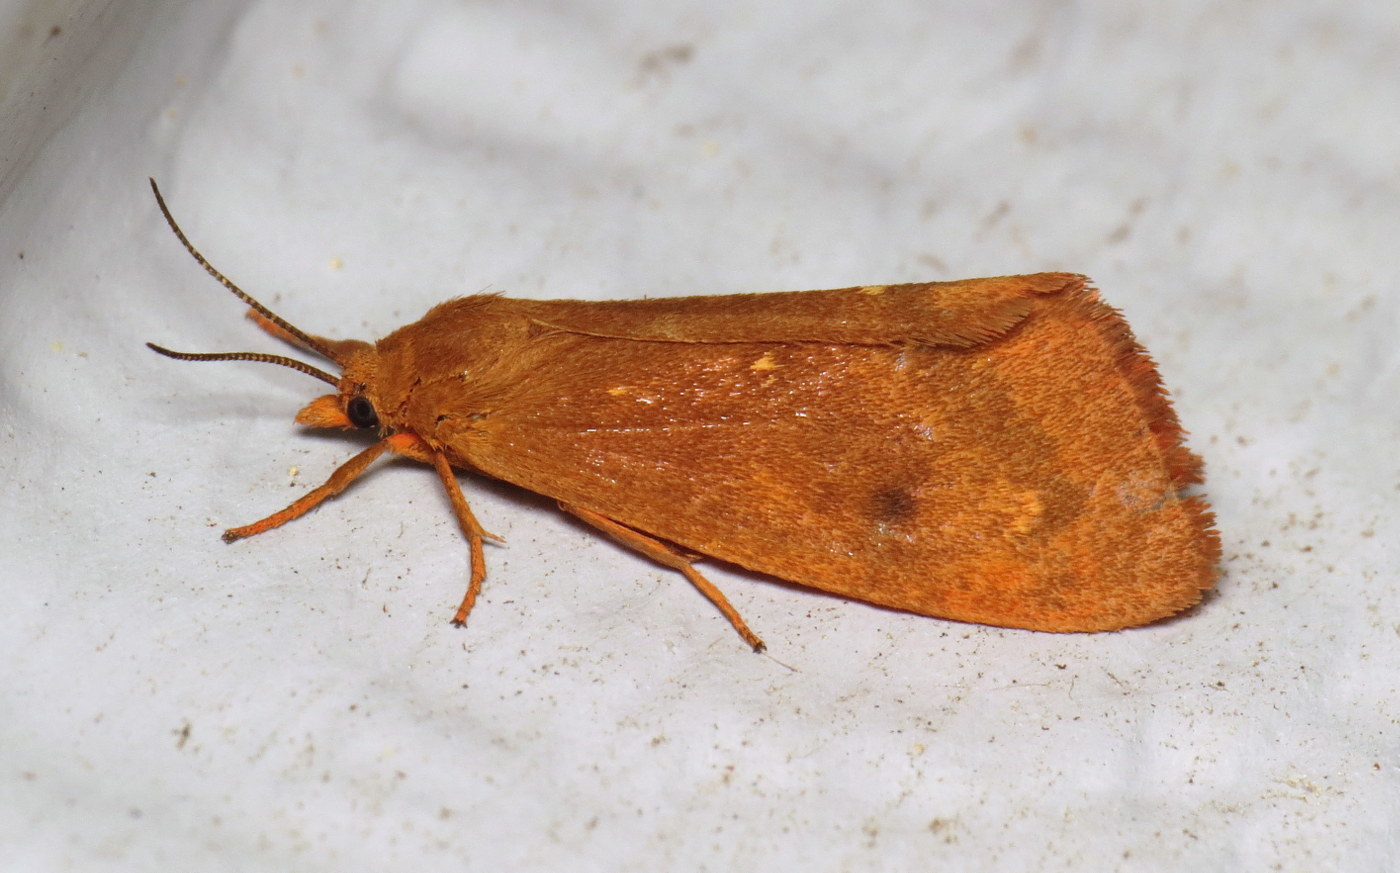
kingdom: Animalia
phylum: Arthropoda
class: Insecta
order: Lepidoptera
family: Erebidae
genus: Virbia
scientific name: Virbia aurantiaca
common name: Orange virbia moth
